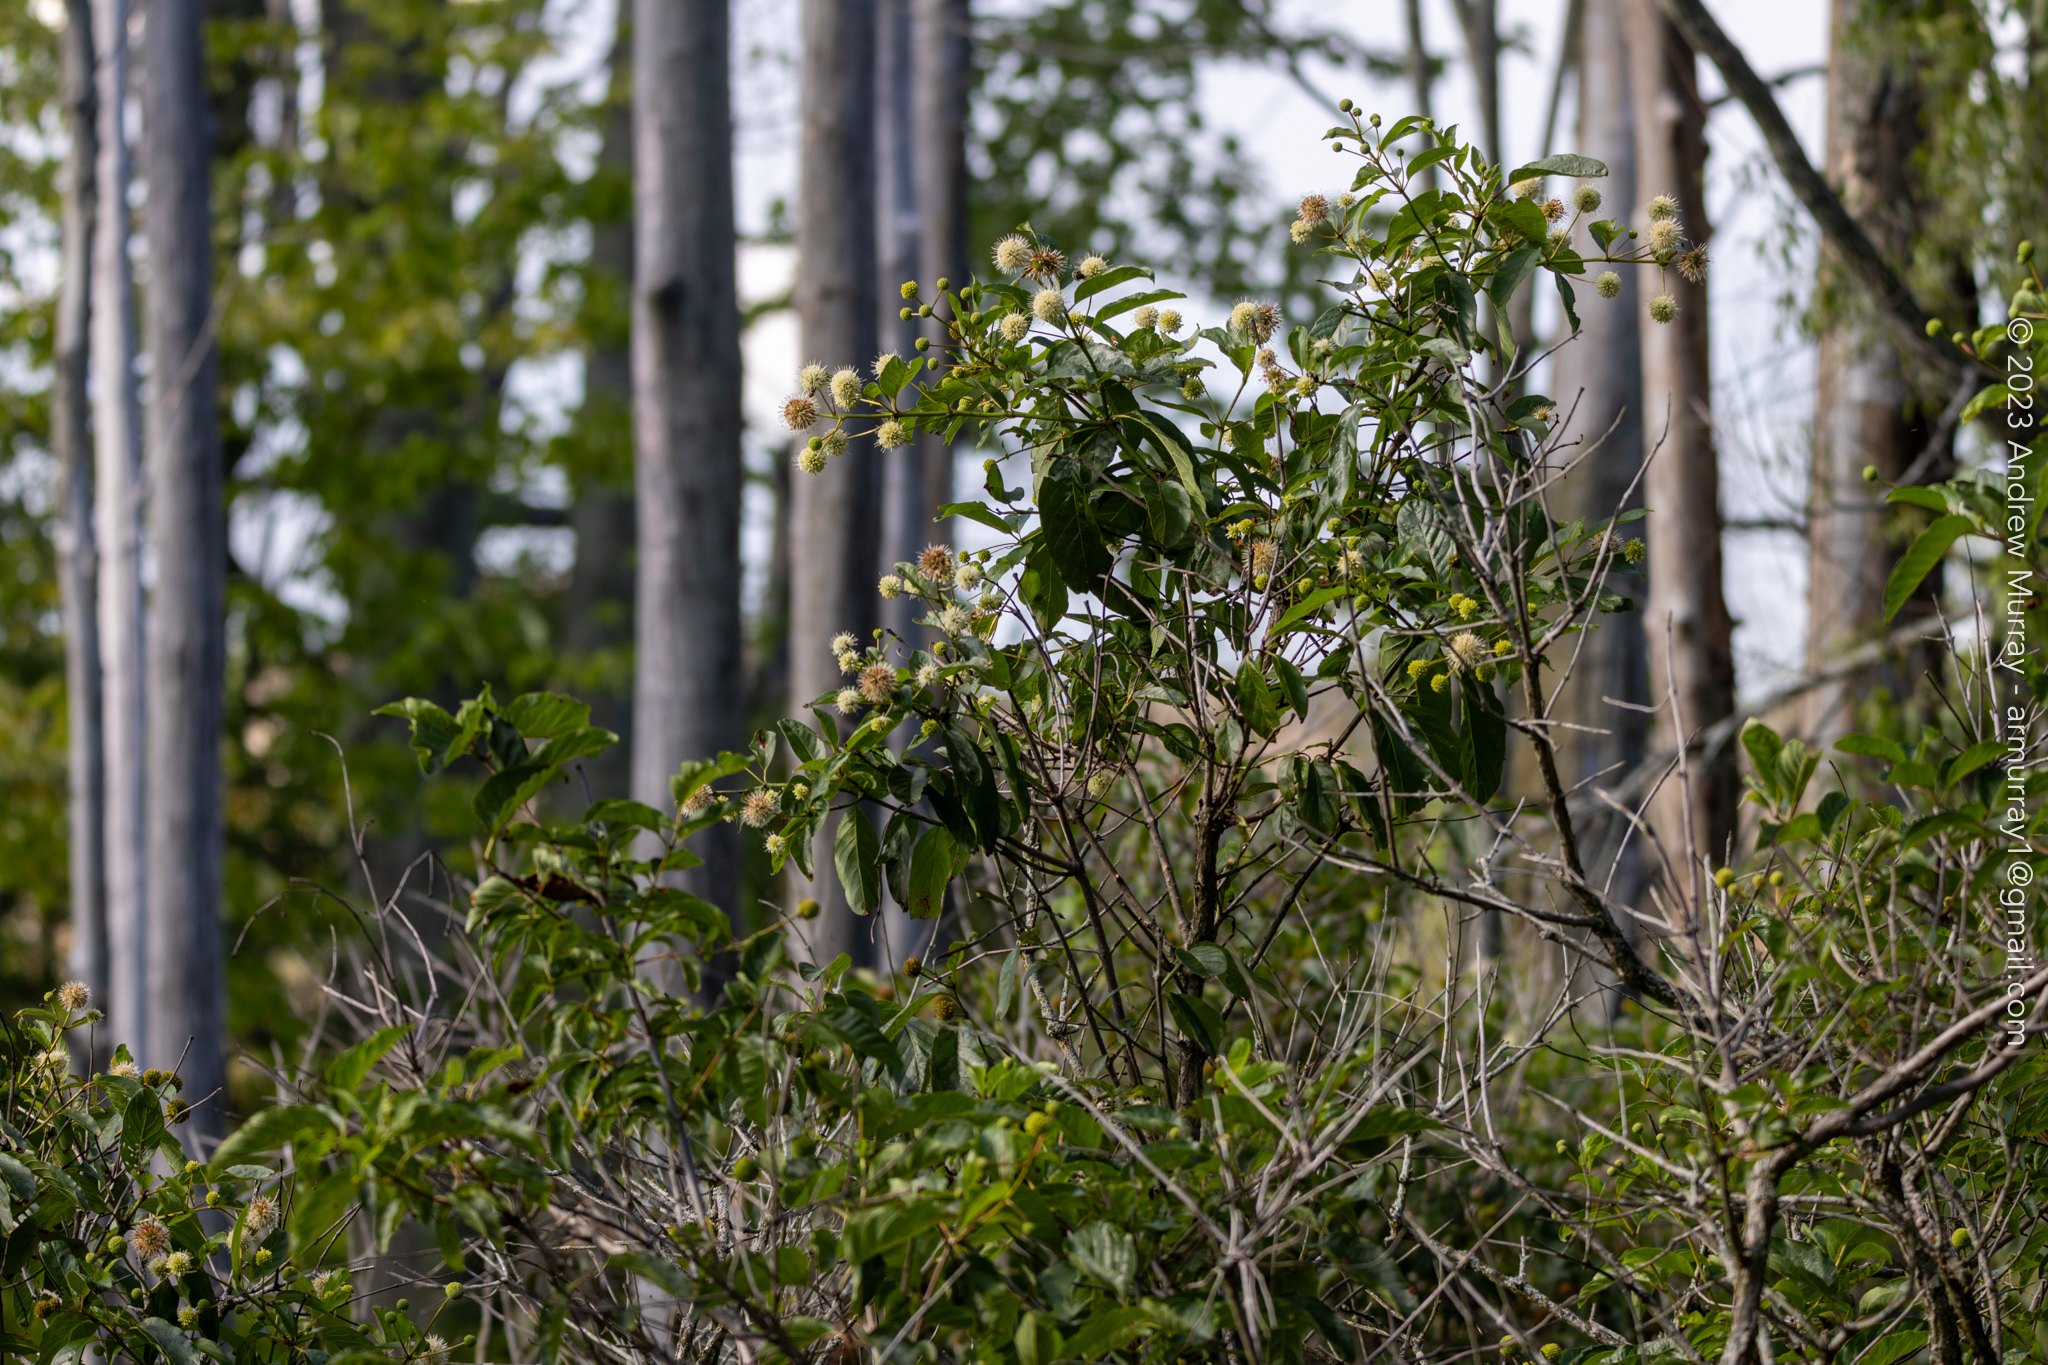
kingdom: Plantae
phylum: Tracheophyta
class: Magnoliopsida
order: Gentianales
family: Rubiaceae
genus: Cephalanthus
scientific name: Cephalanthus occidentalis
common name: Button-willow
